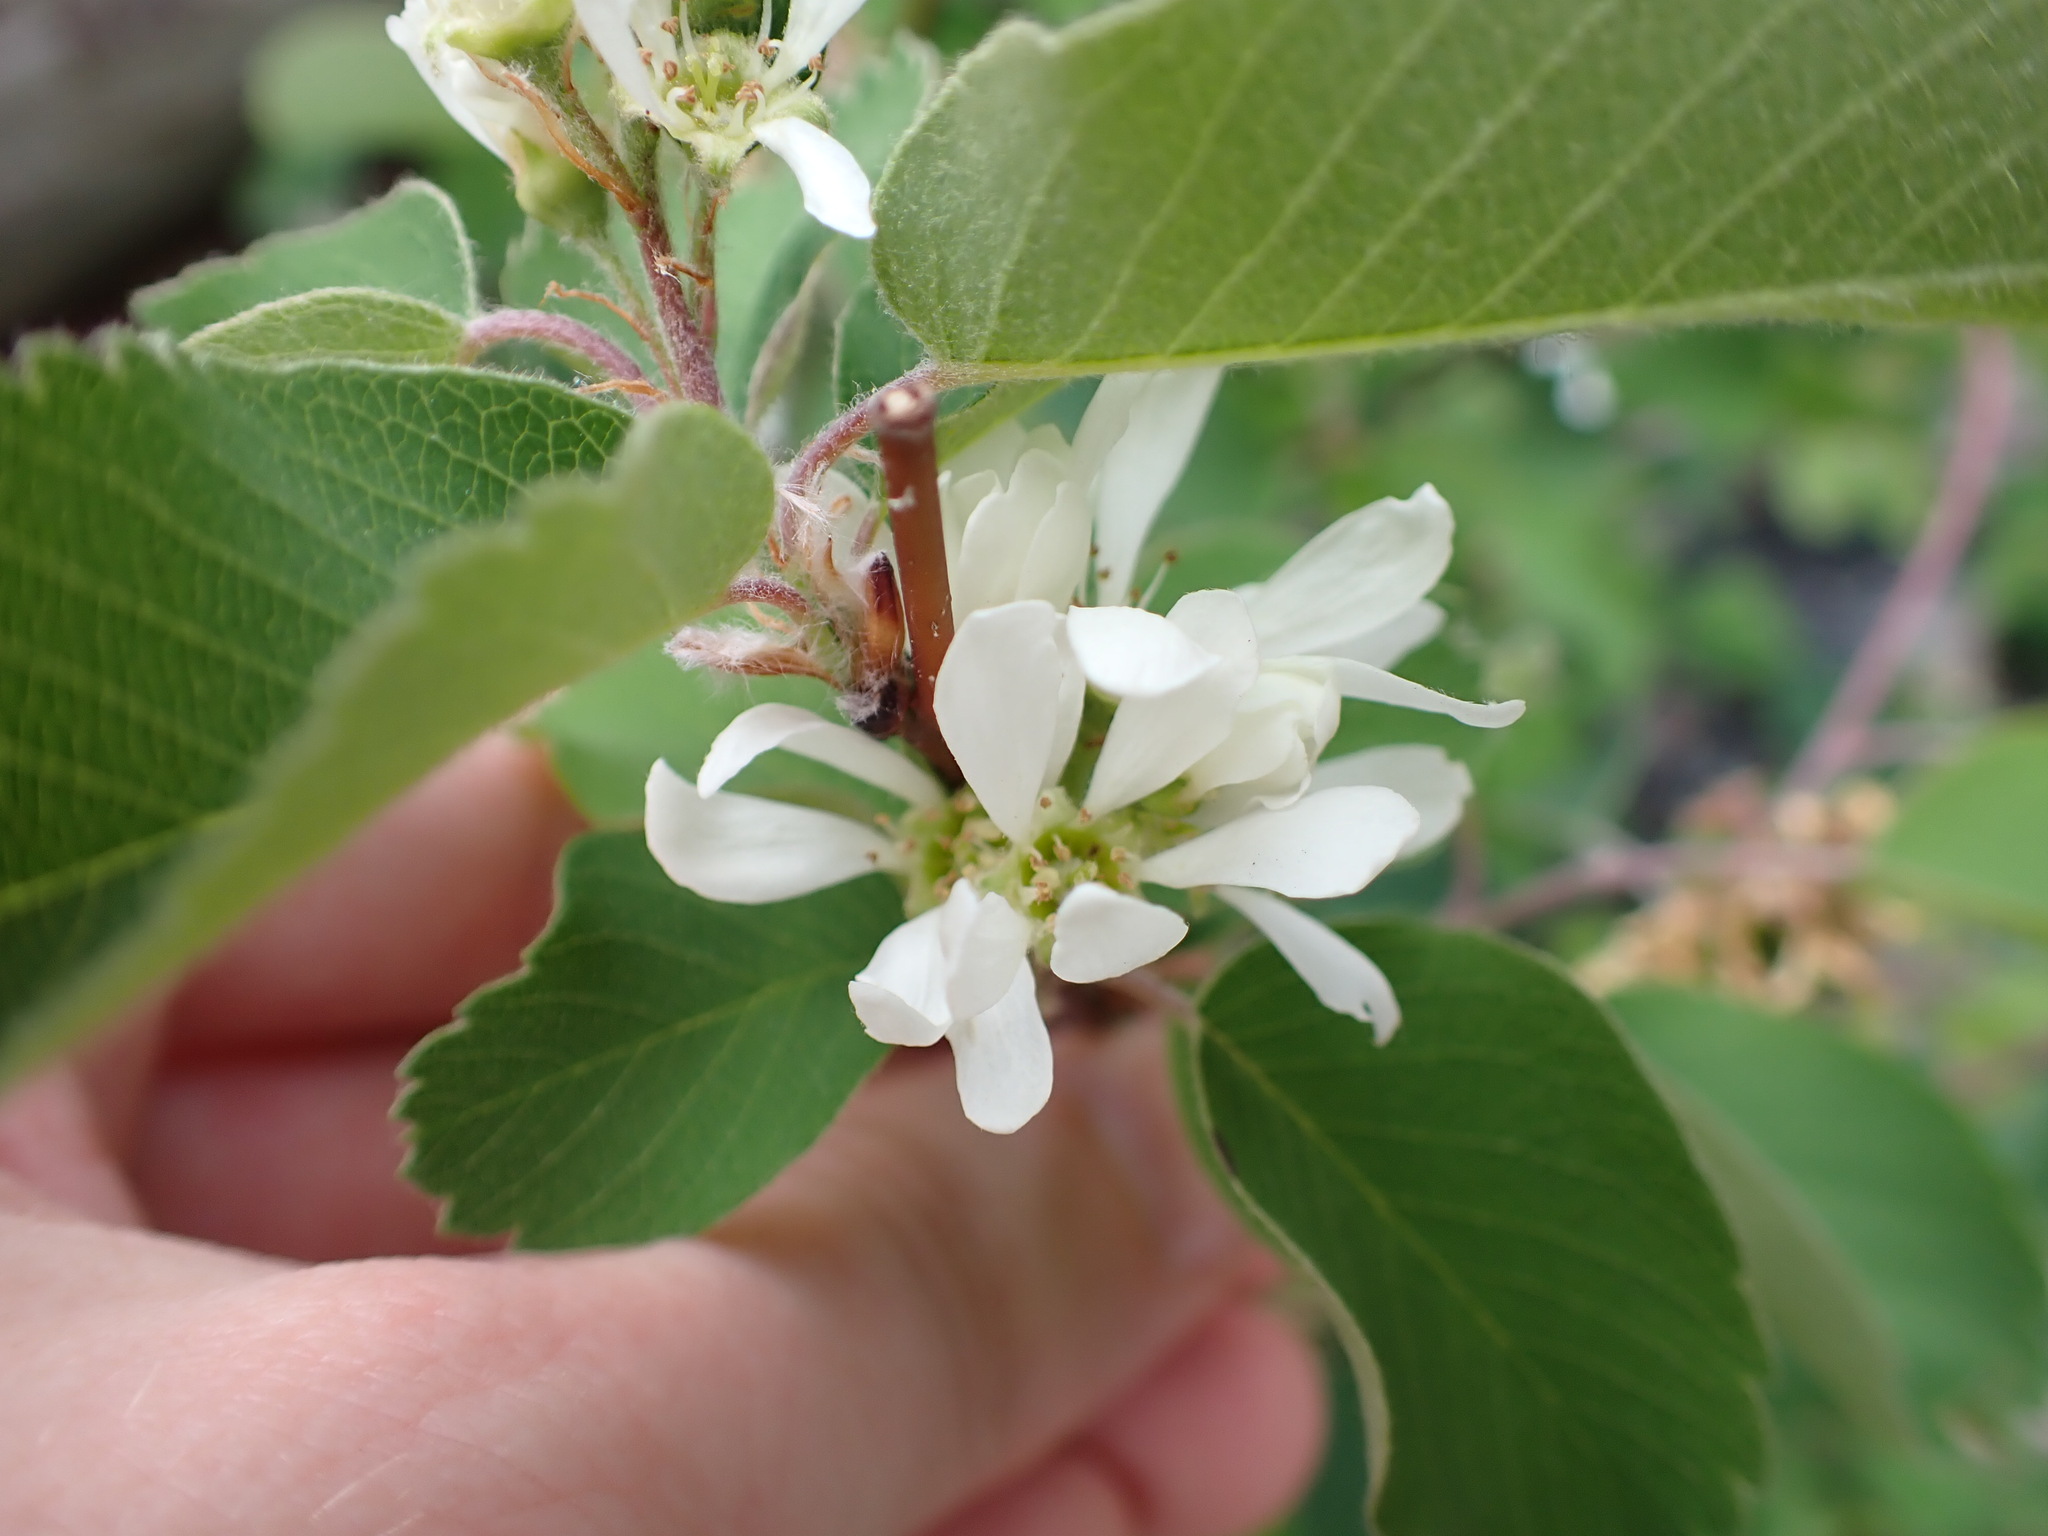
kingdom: Plantae
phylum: Tracheophyta
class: Magnoliopsida
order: Rosales
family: Rosaceae
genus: Amelanchier
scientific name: Amelanchier alnifolia
